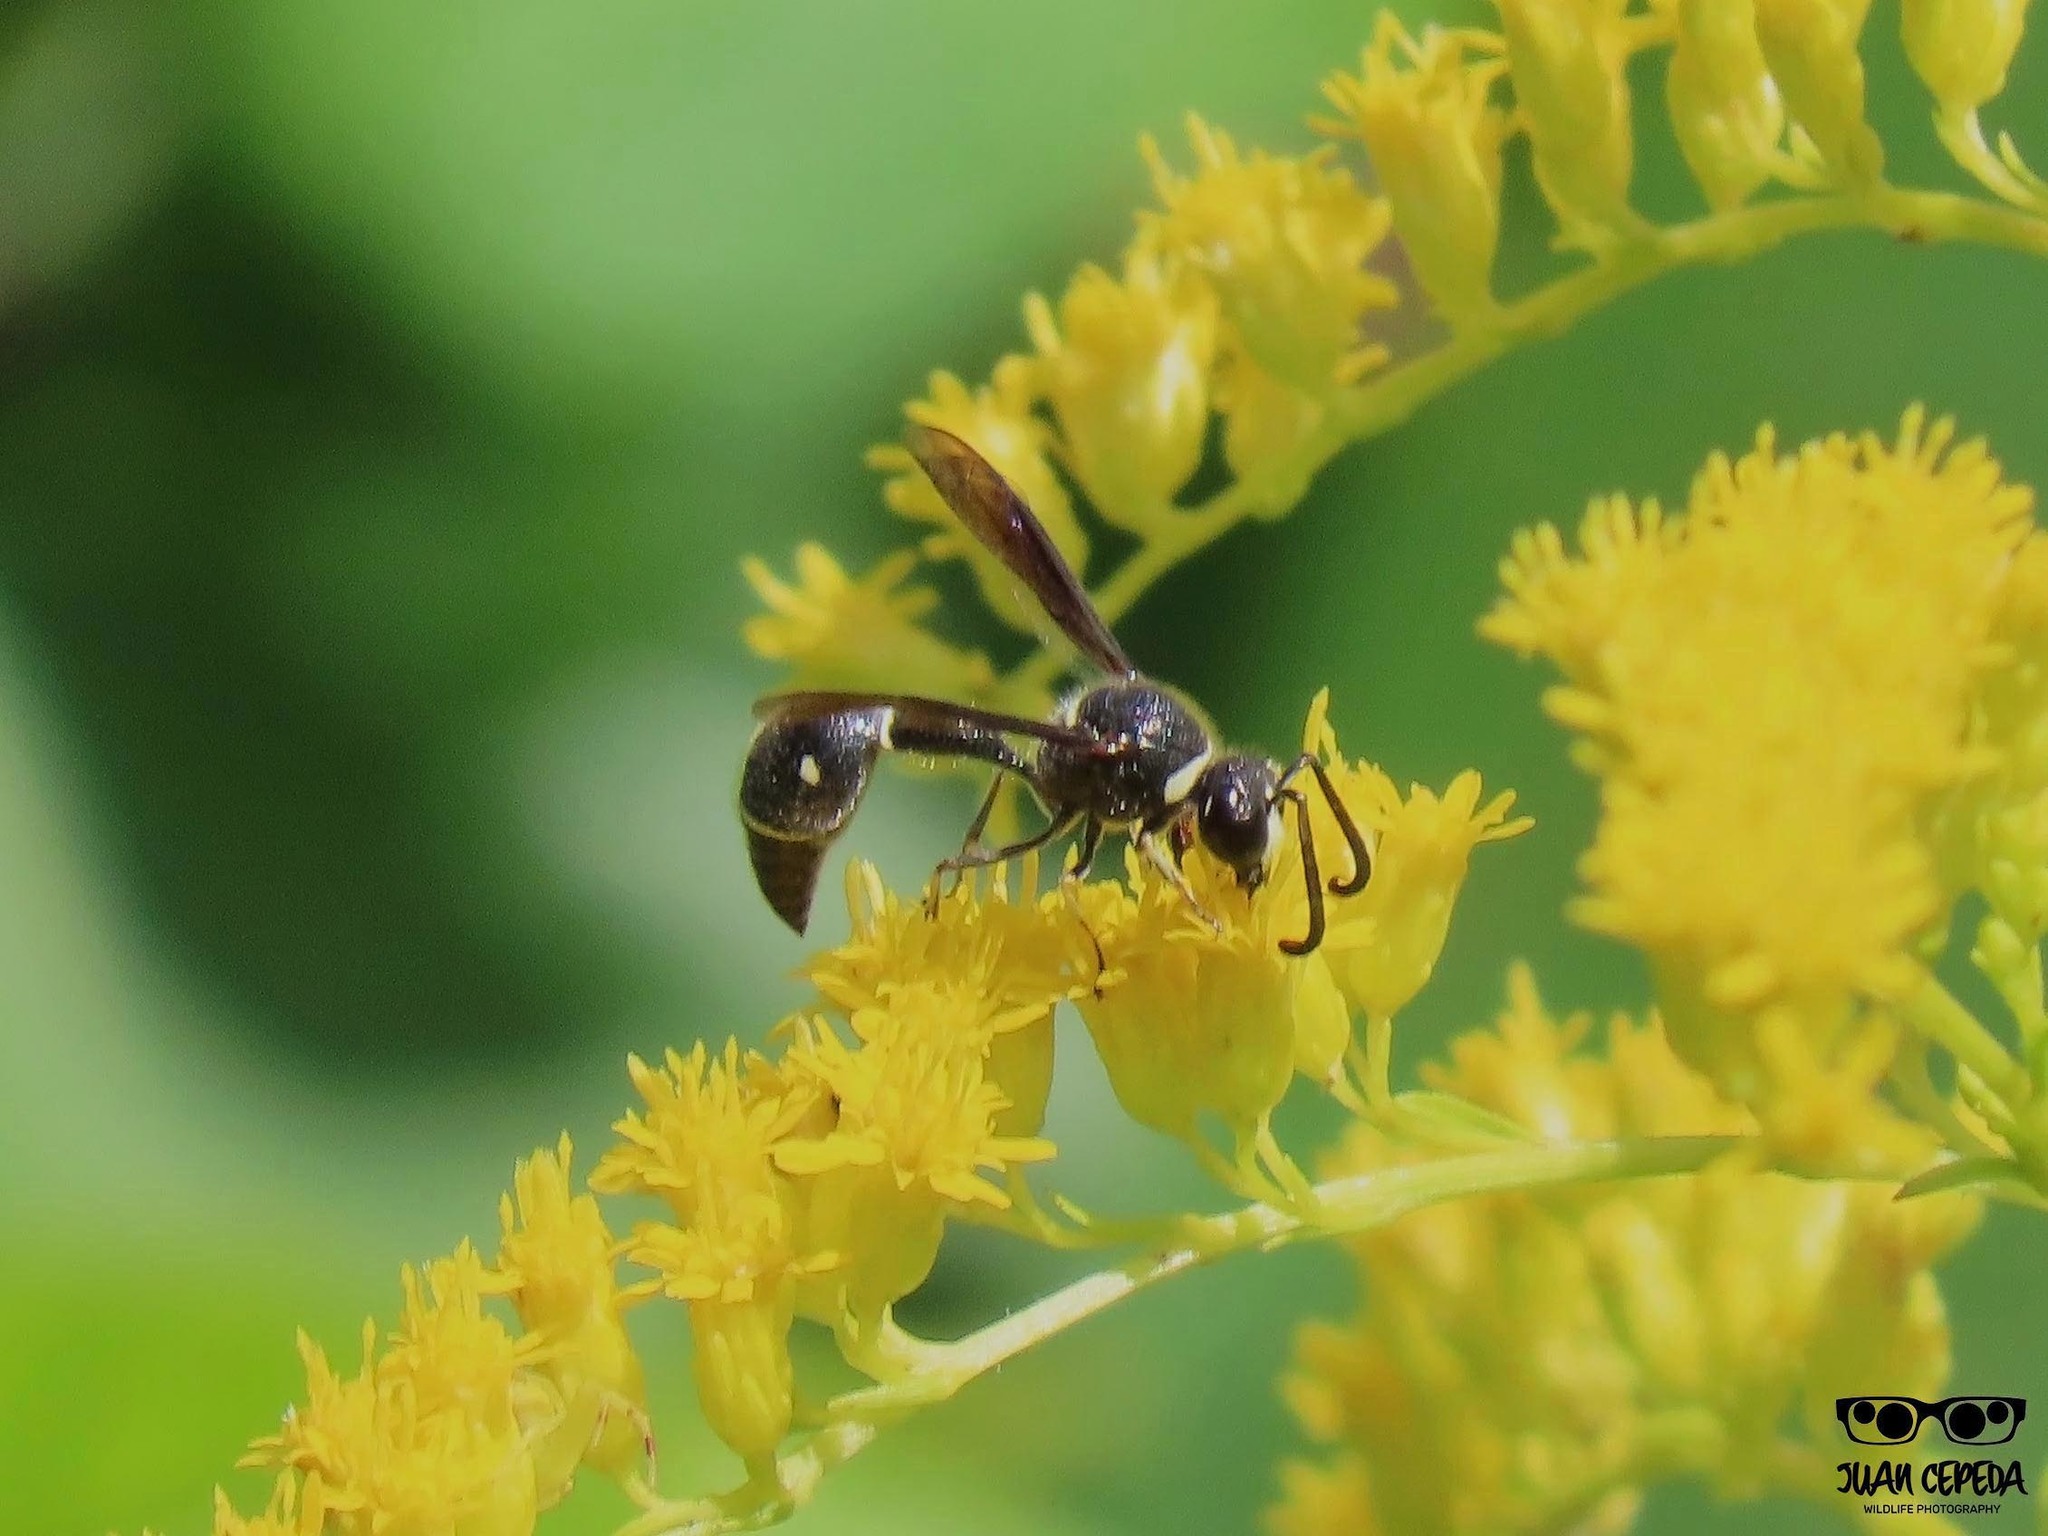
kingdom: Animalia
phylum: Arthropoda
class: Insecta
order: Hymenoptera
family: Vespidae
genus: Eumenes
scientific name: Eumenes fraternus
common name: Fraternal potter wasp
